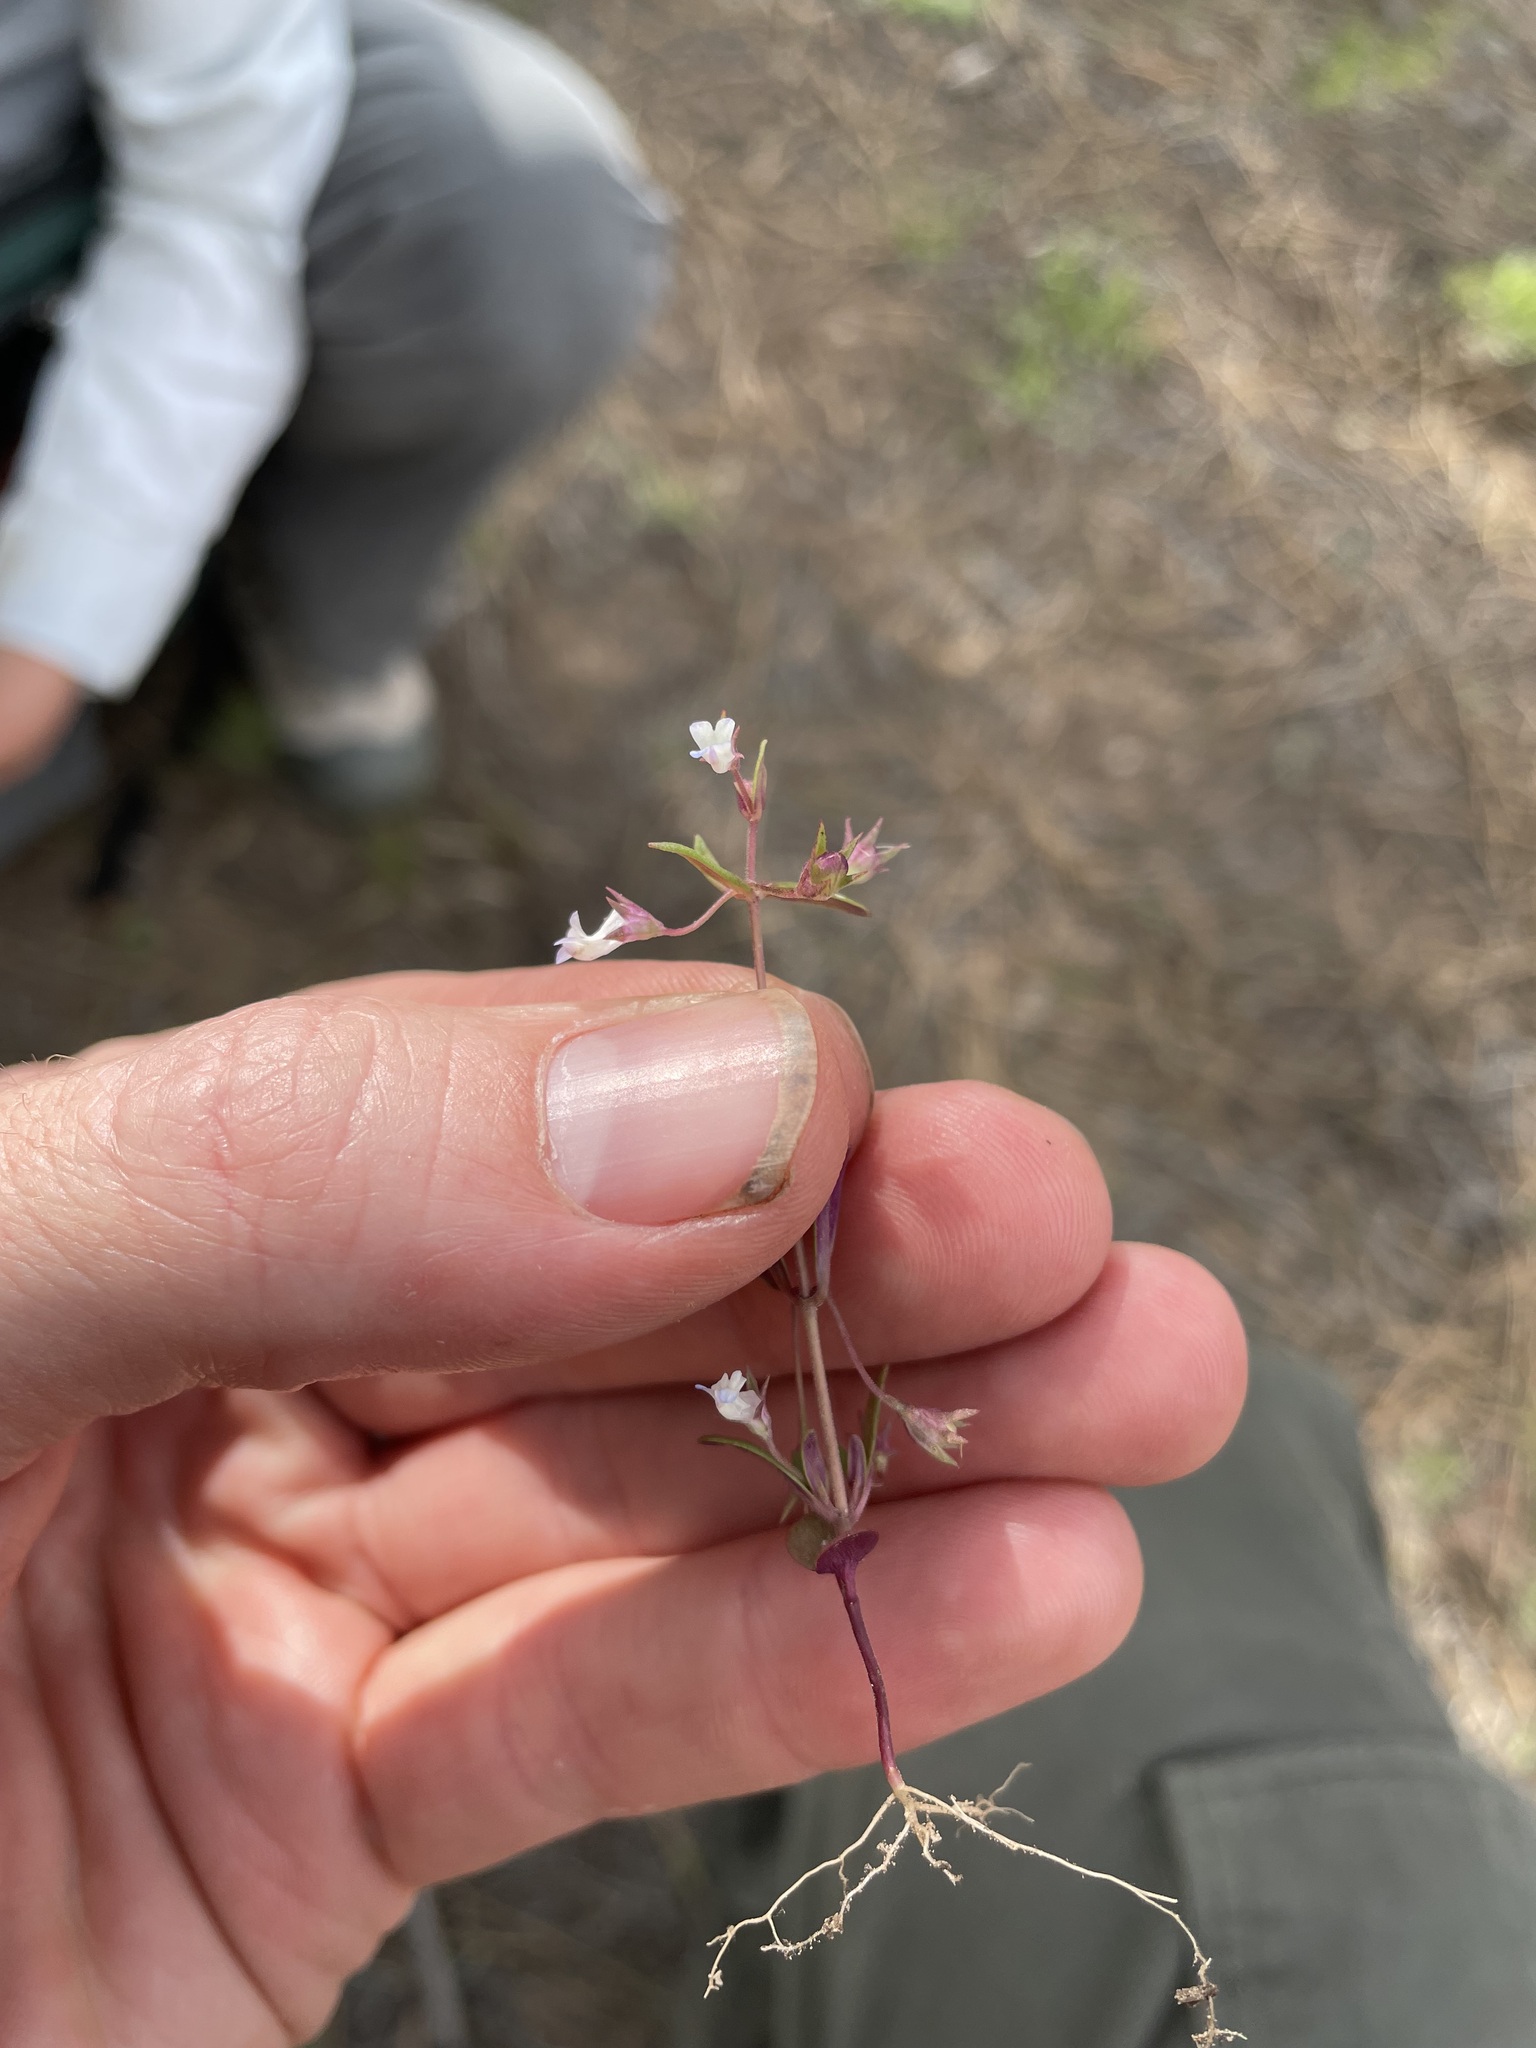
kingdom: Plantae
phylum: Tracheophyta
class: Magnoliopsida
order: Lamiales
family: Plantaginaceae
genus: Collinsia
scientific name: Collinsia parviflora
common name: Blue-lips
